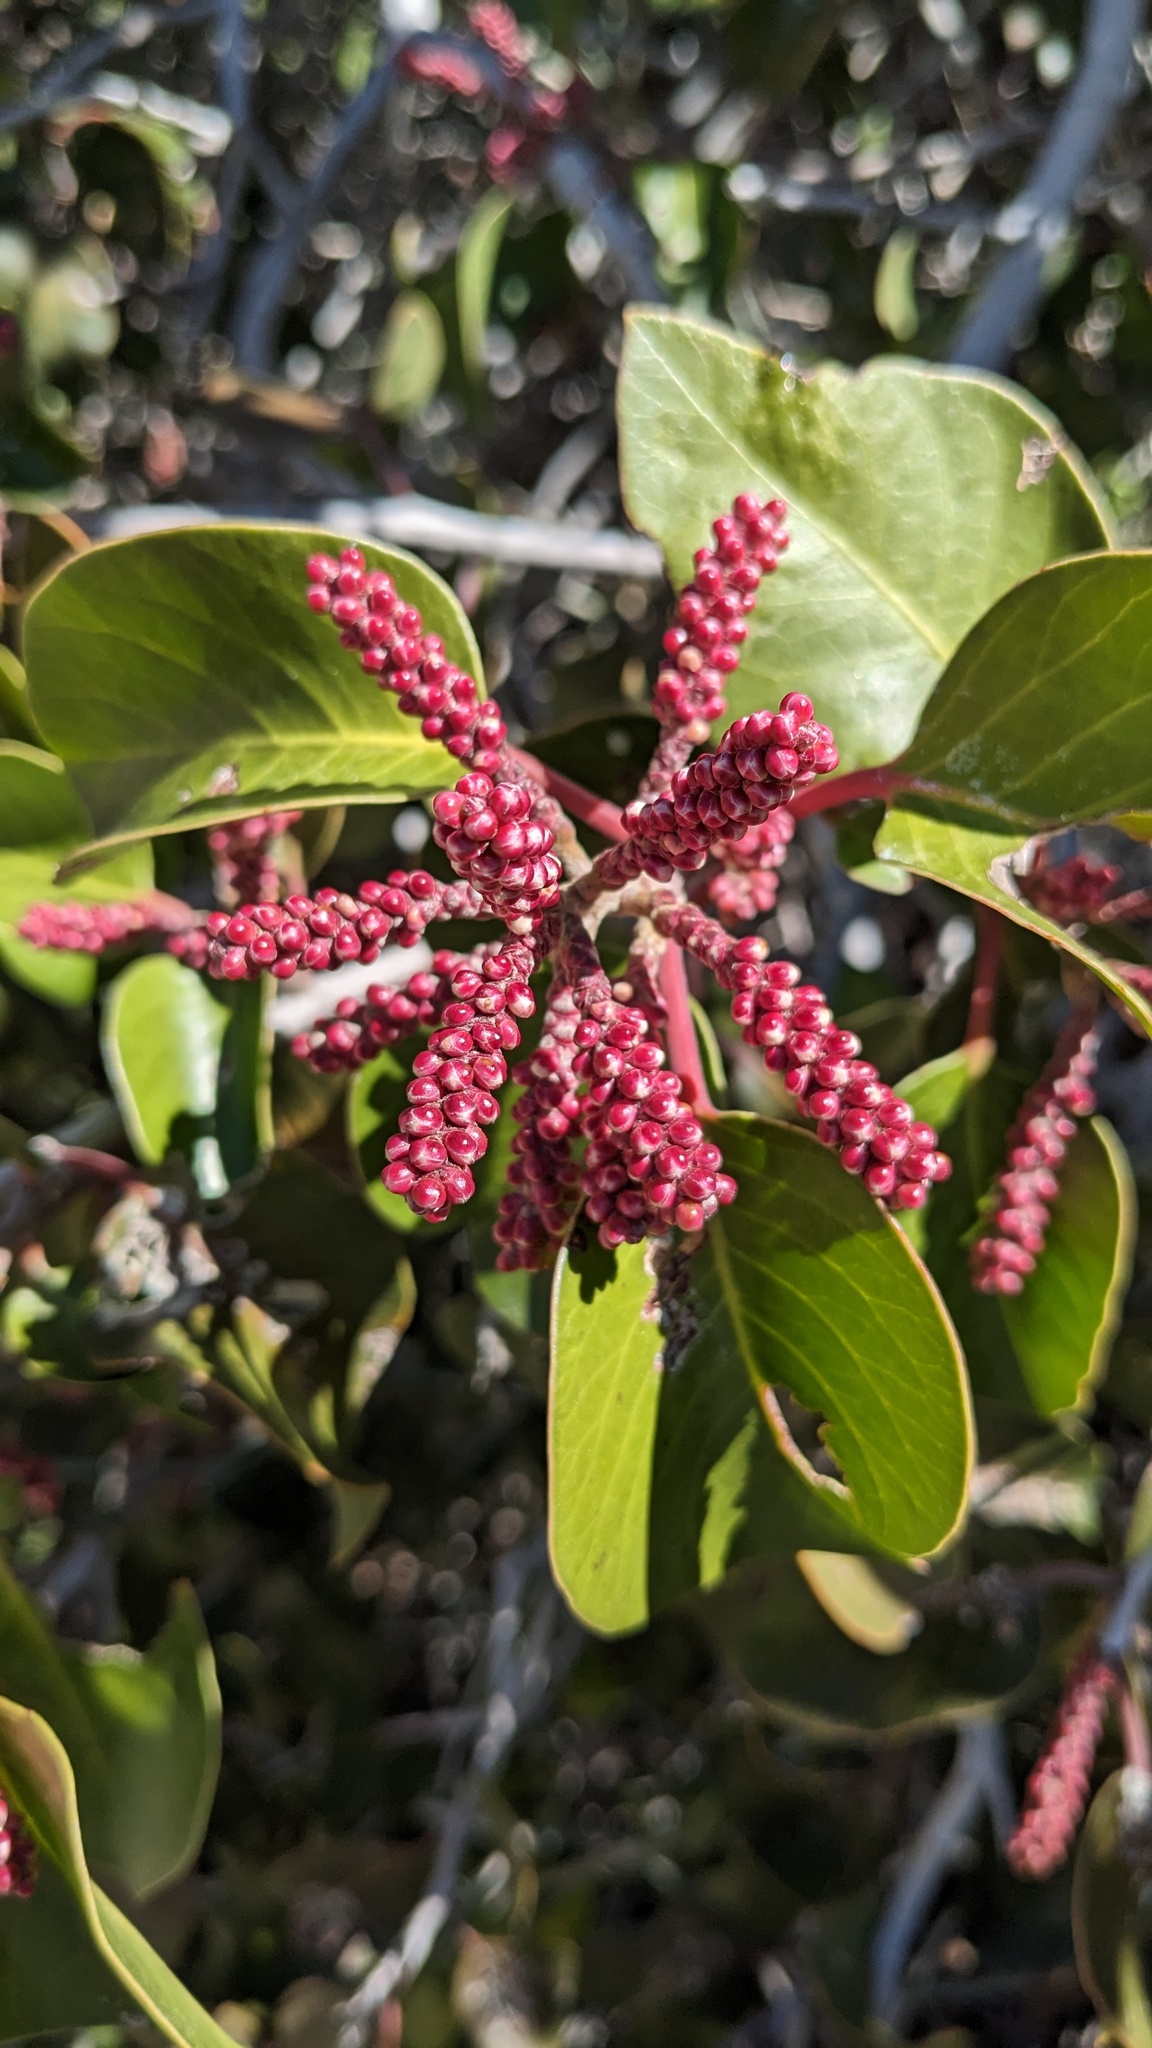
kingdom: Plantae
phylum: Tracheophyta
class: Magnoliopsida
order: Sapindales
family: Anacardiaceae
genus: Rhus
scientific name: Rhus ovata
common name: Sugar sumac
